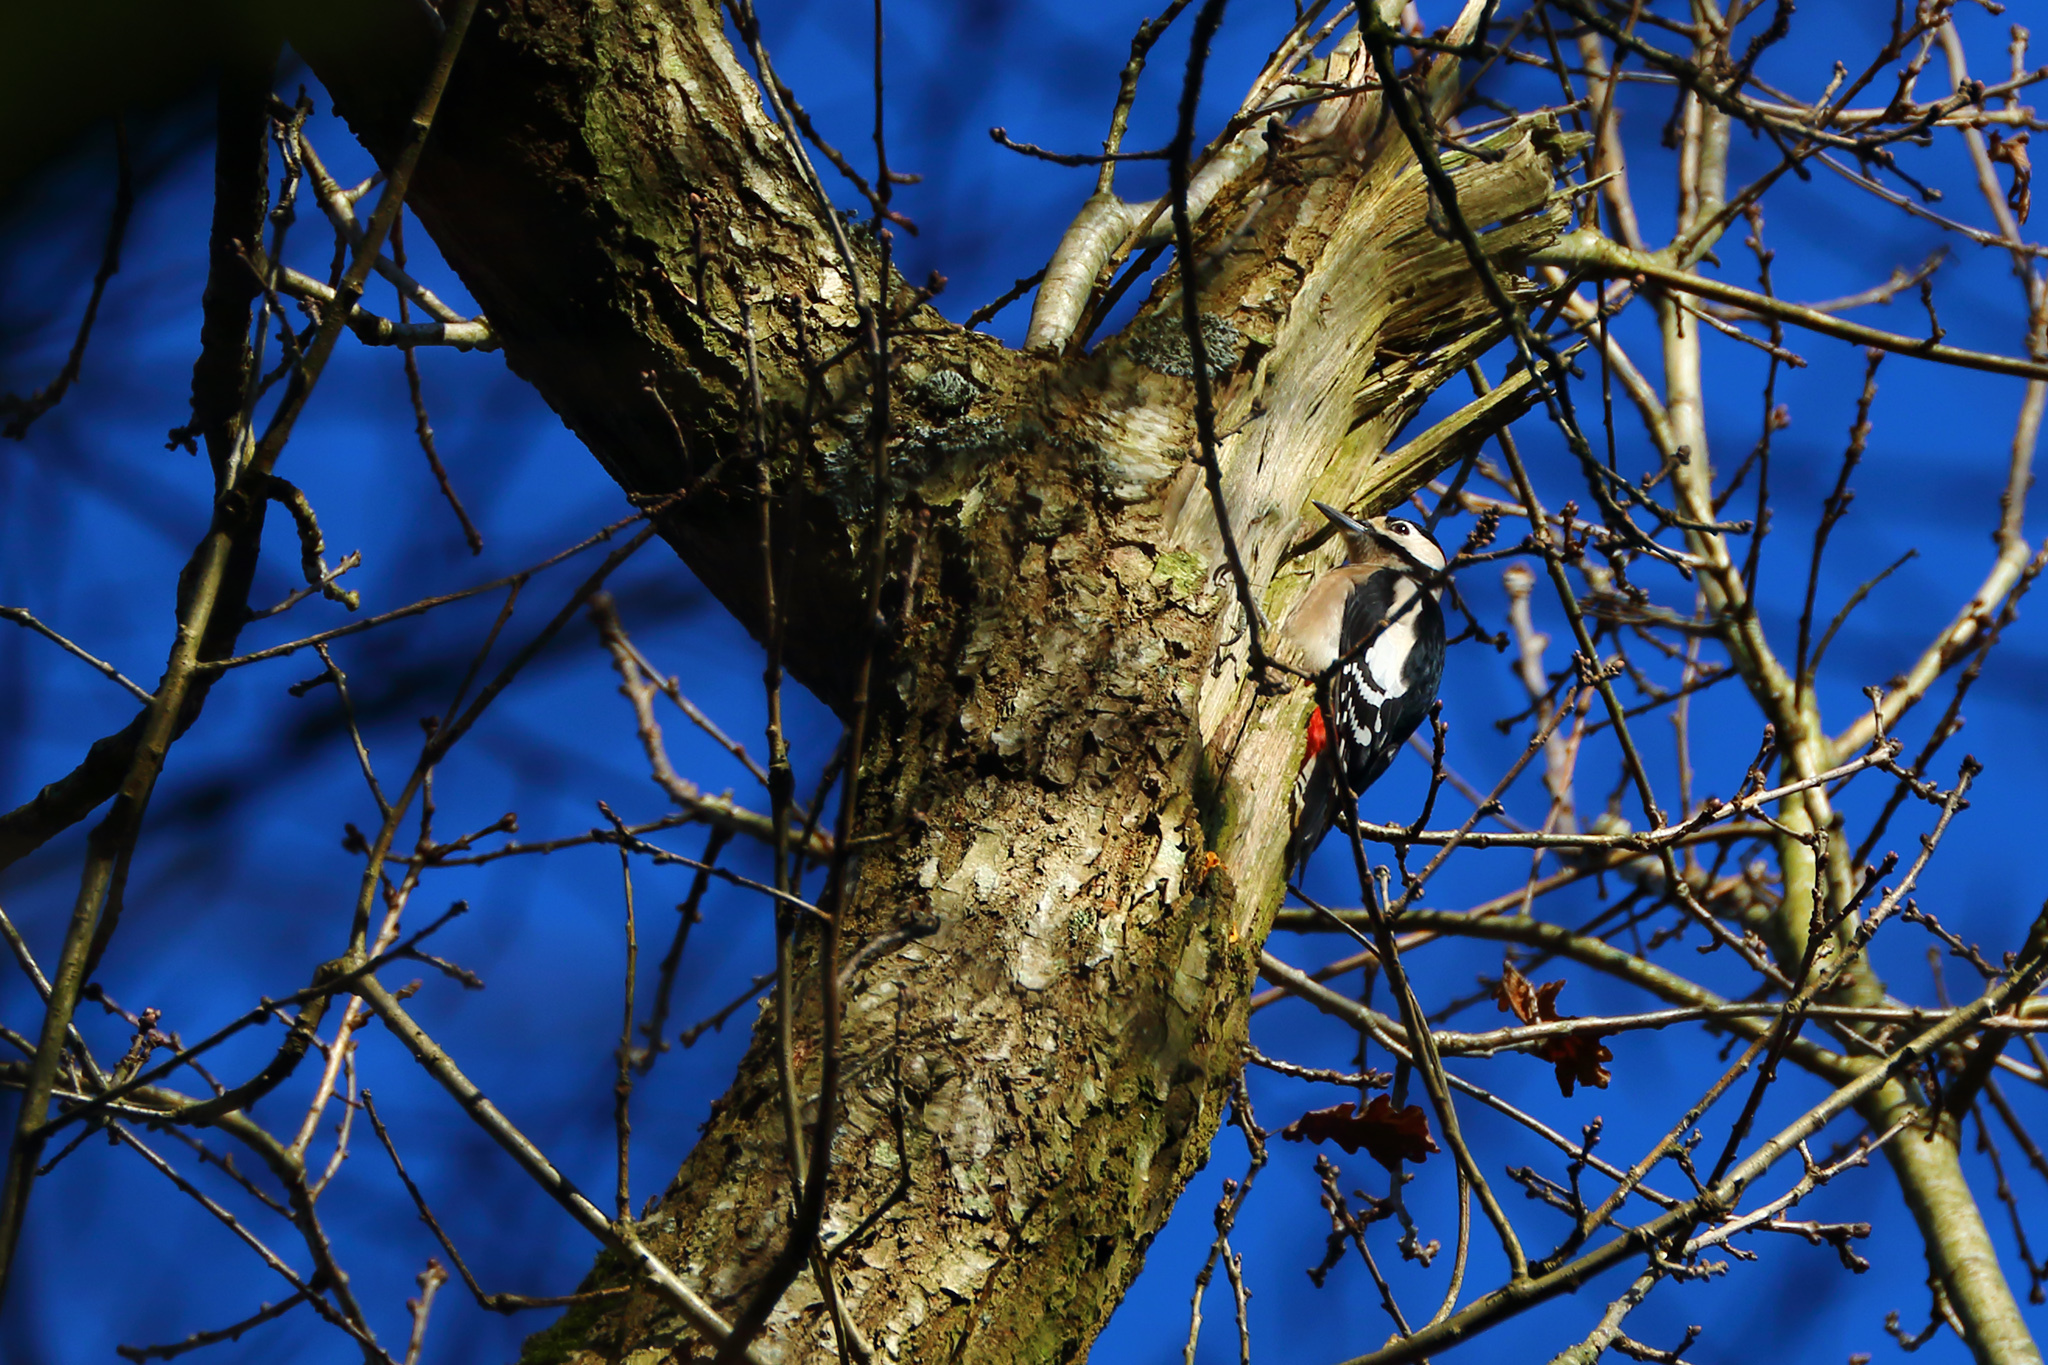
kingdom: Animalia
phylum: Chordata
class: Aves
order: Piciformes
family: Picidae
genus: Dendrocopos
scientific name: Dendrocopos major
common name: Great spotted woodpecker
